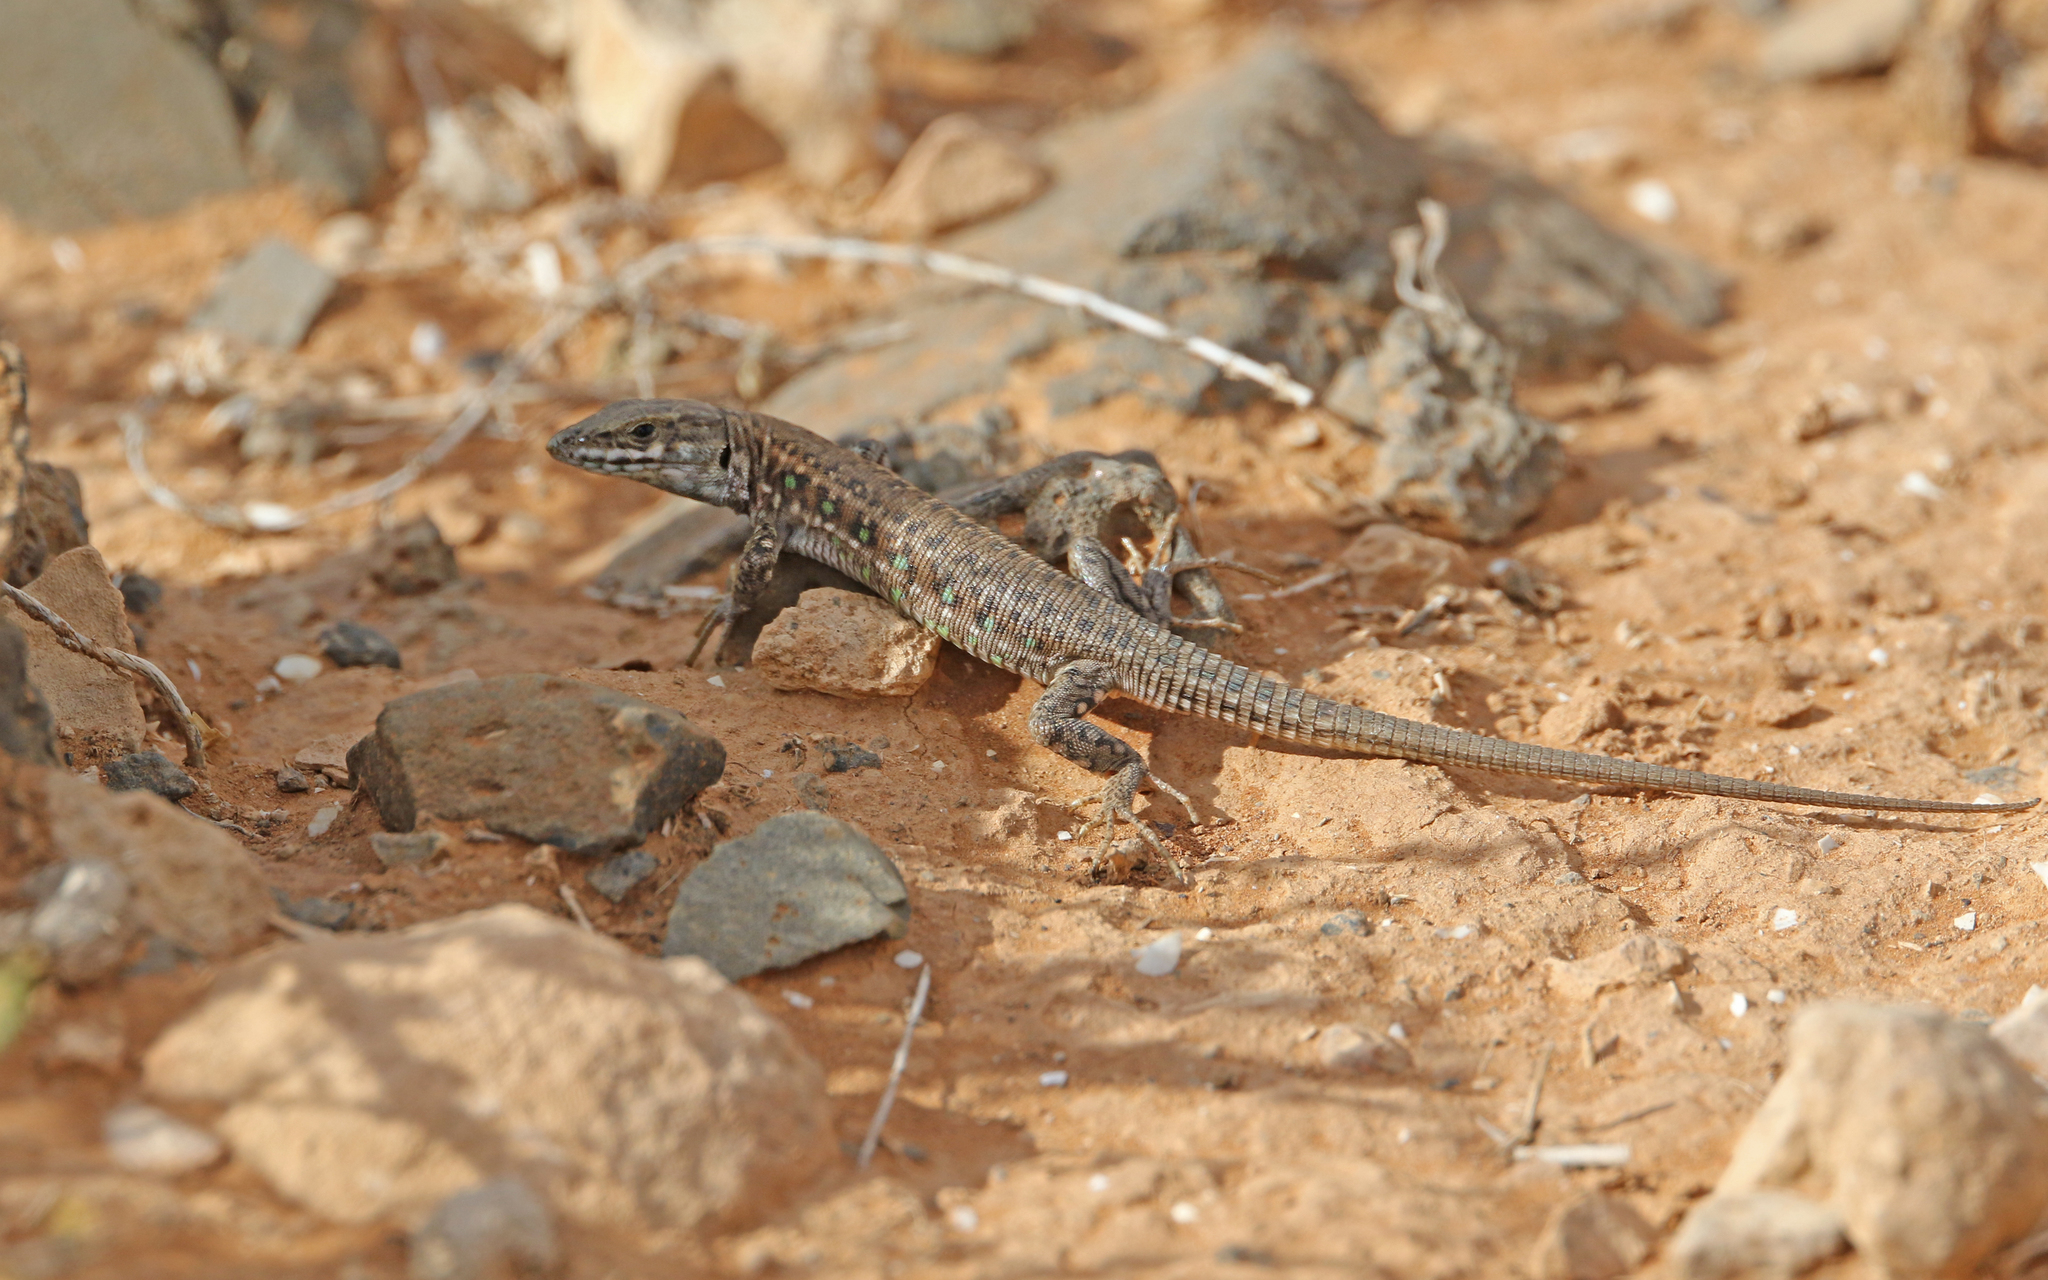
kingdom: Animalia
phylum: Chordata
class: Squamata
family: Lacertidae
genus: Gallotia
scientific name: Gallotia atlantica
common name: Atlantic lizard
